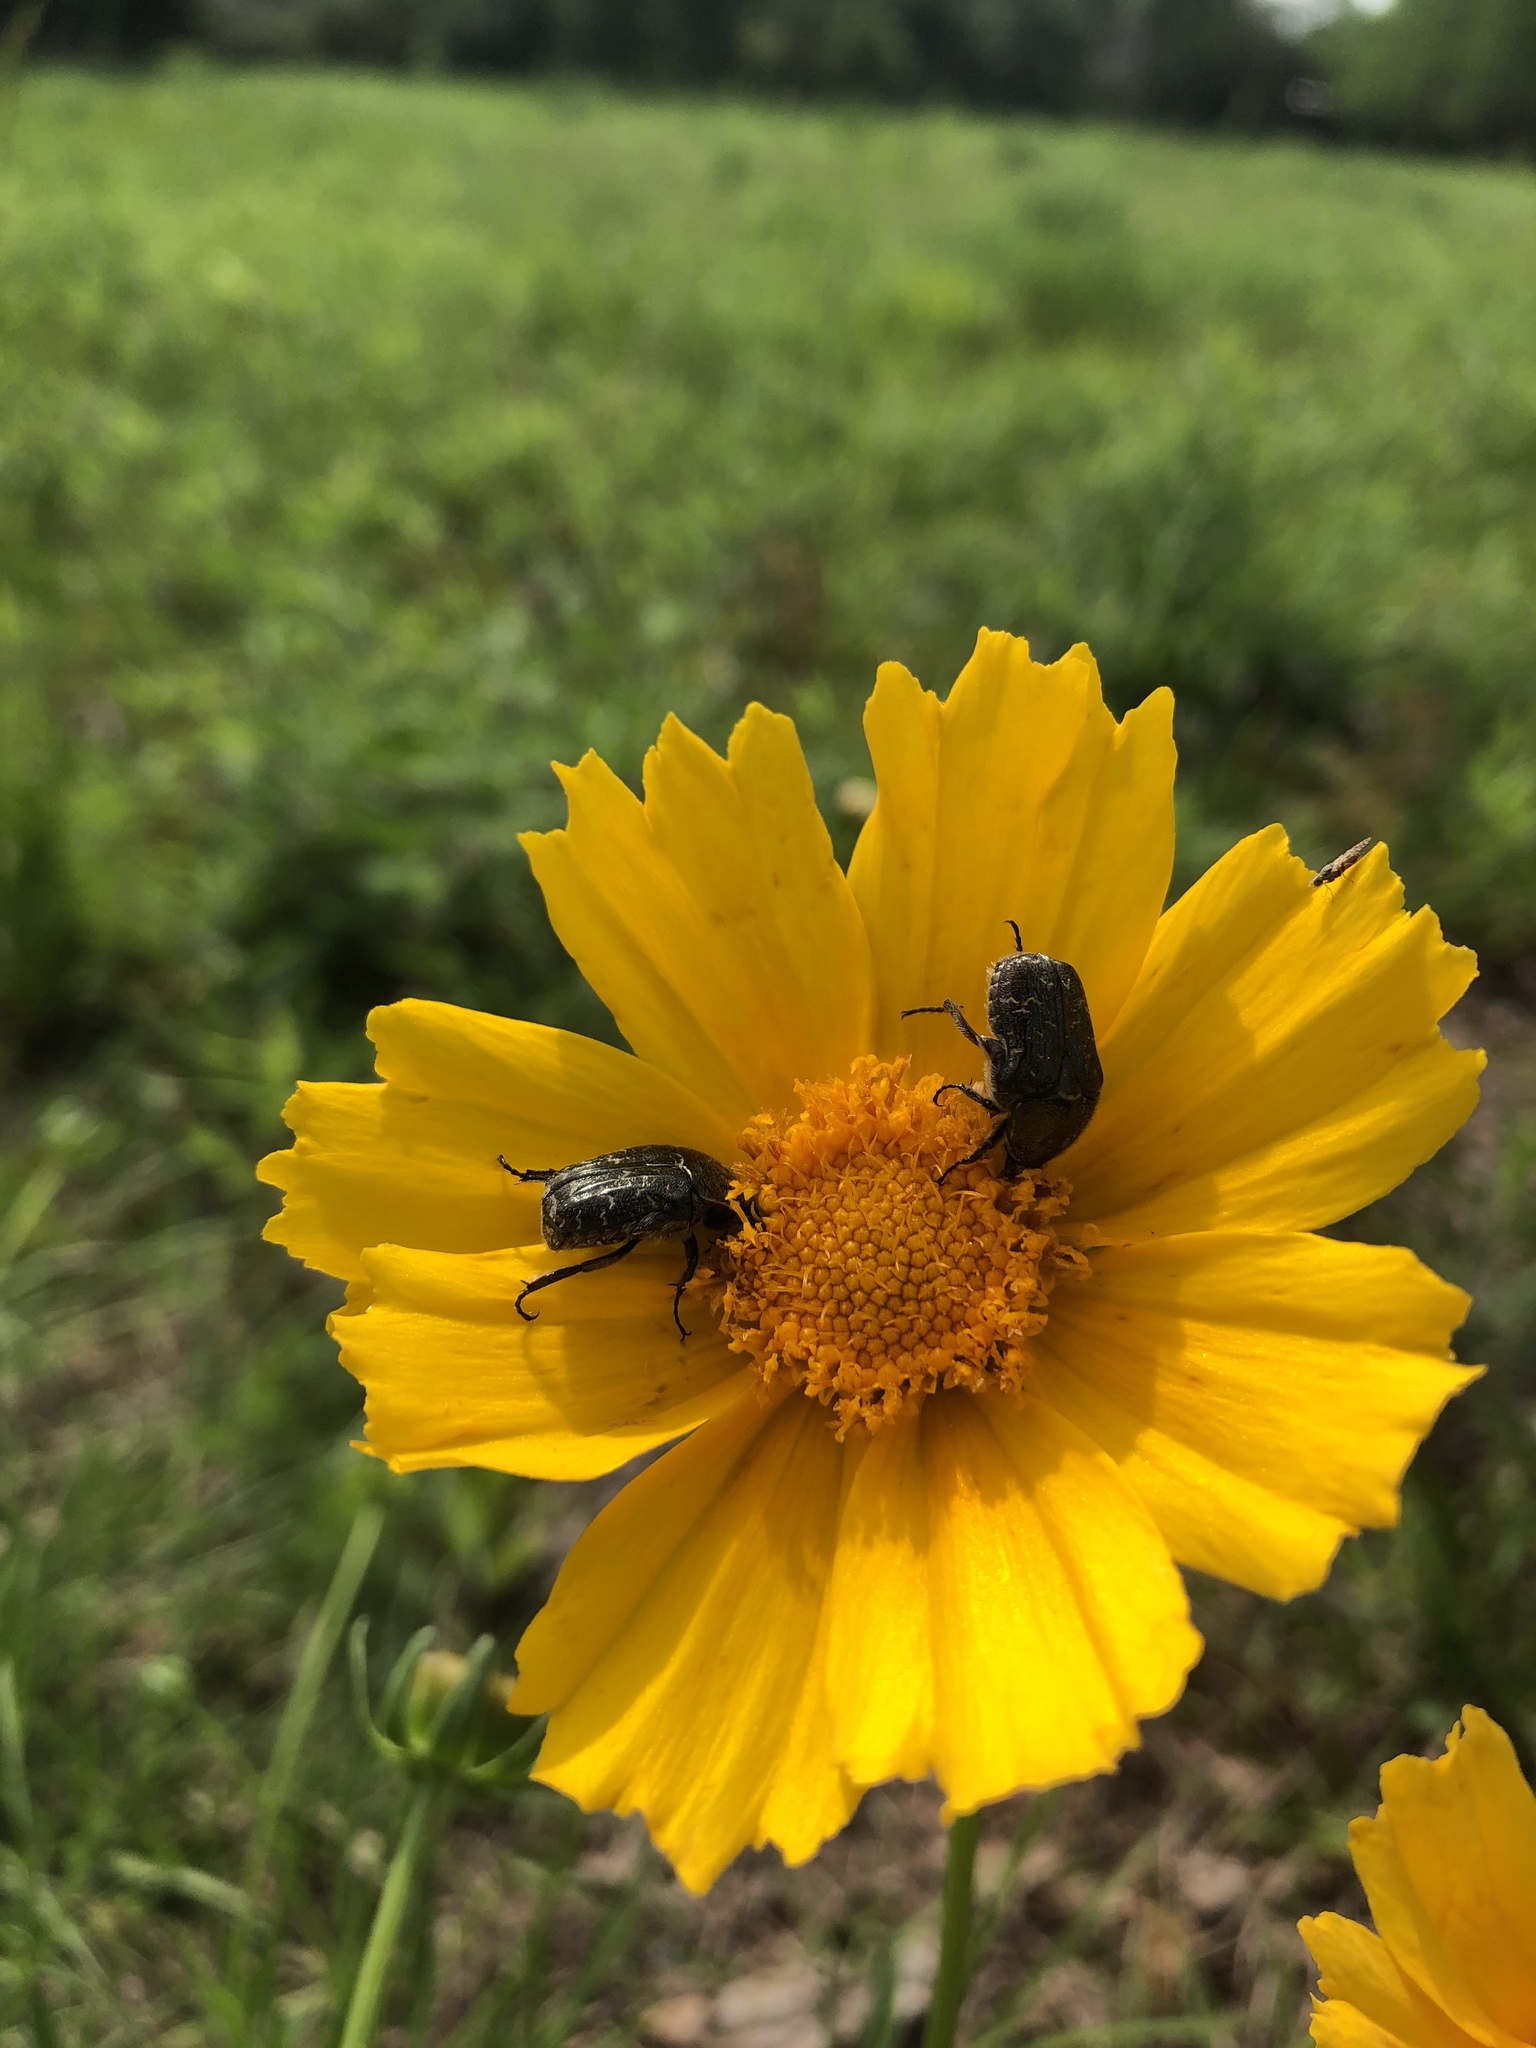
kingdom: Animalia
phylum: Arthropoda
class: Insecta
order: Coleoptera
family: Scarabaeidae
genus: Euphoria
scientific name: Euphoria sepulcralis
